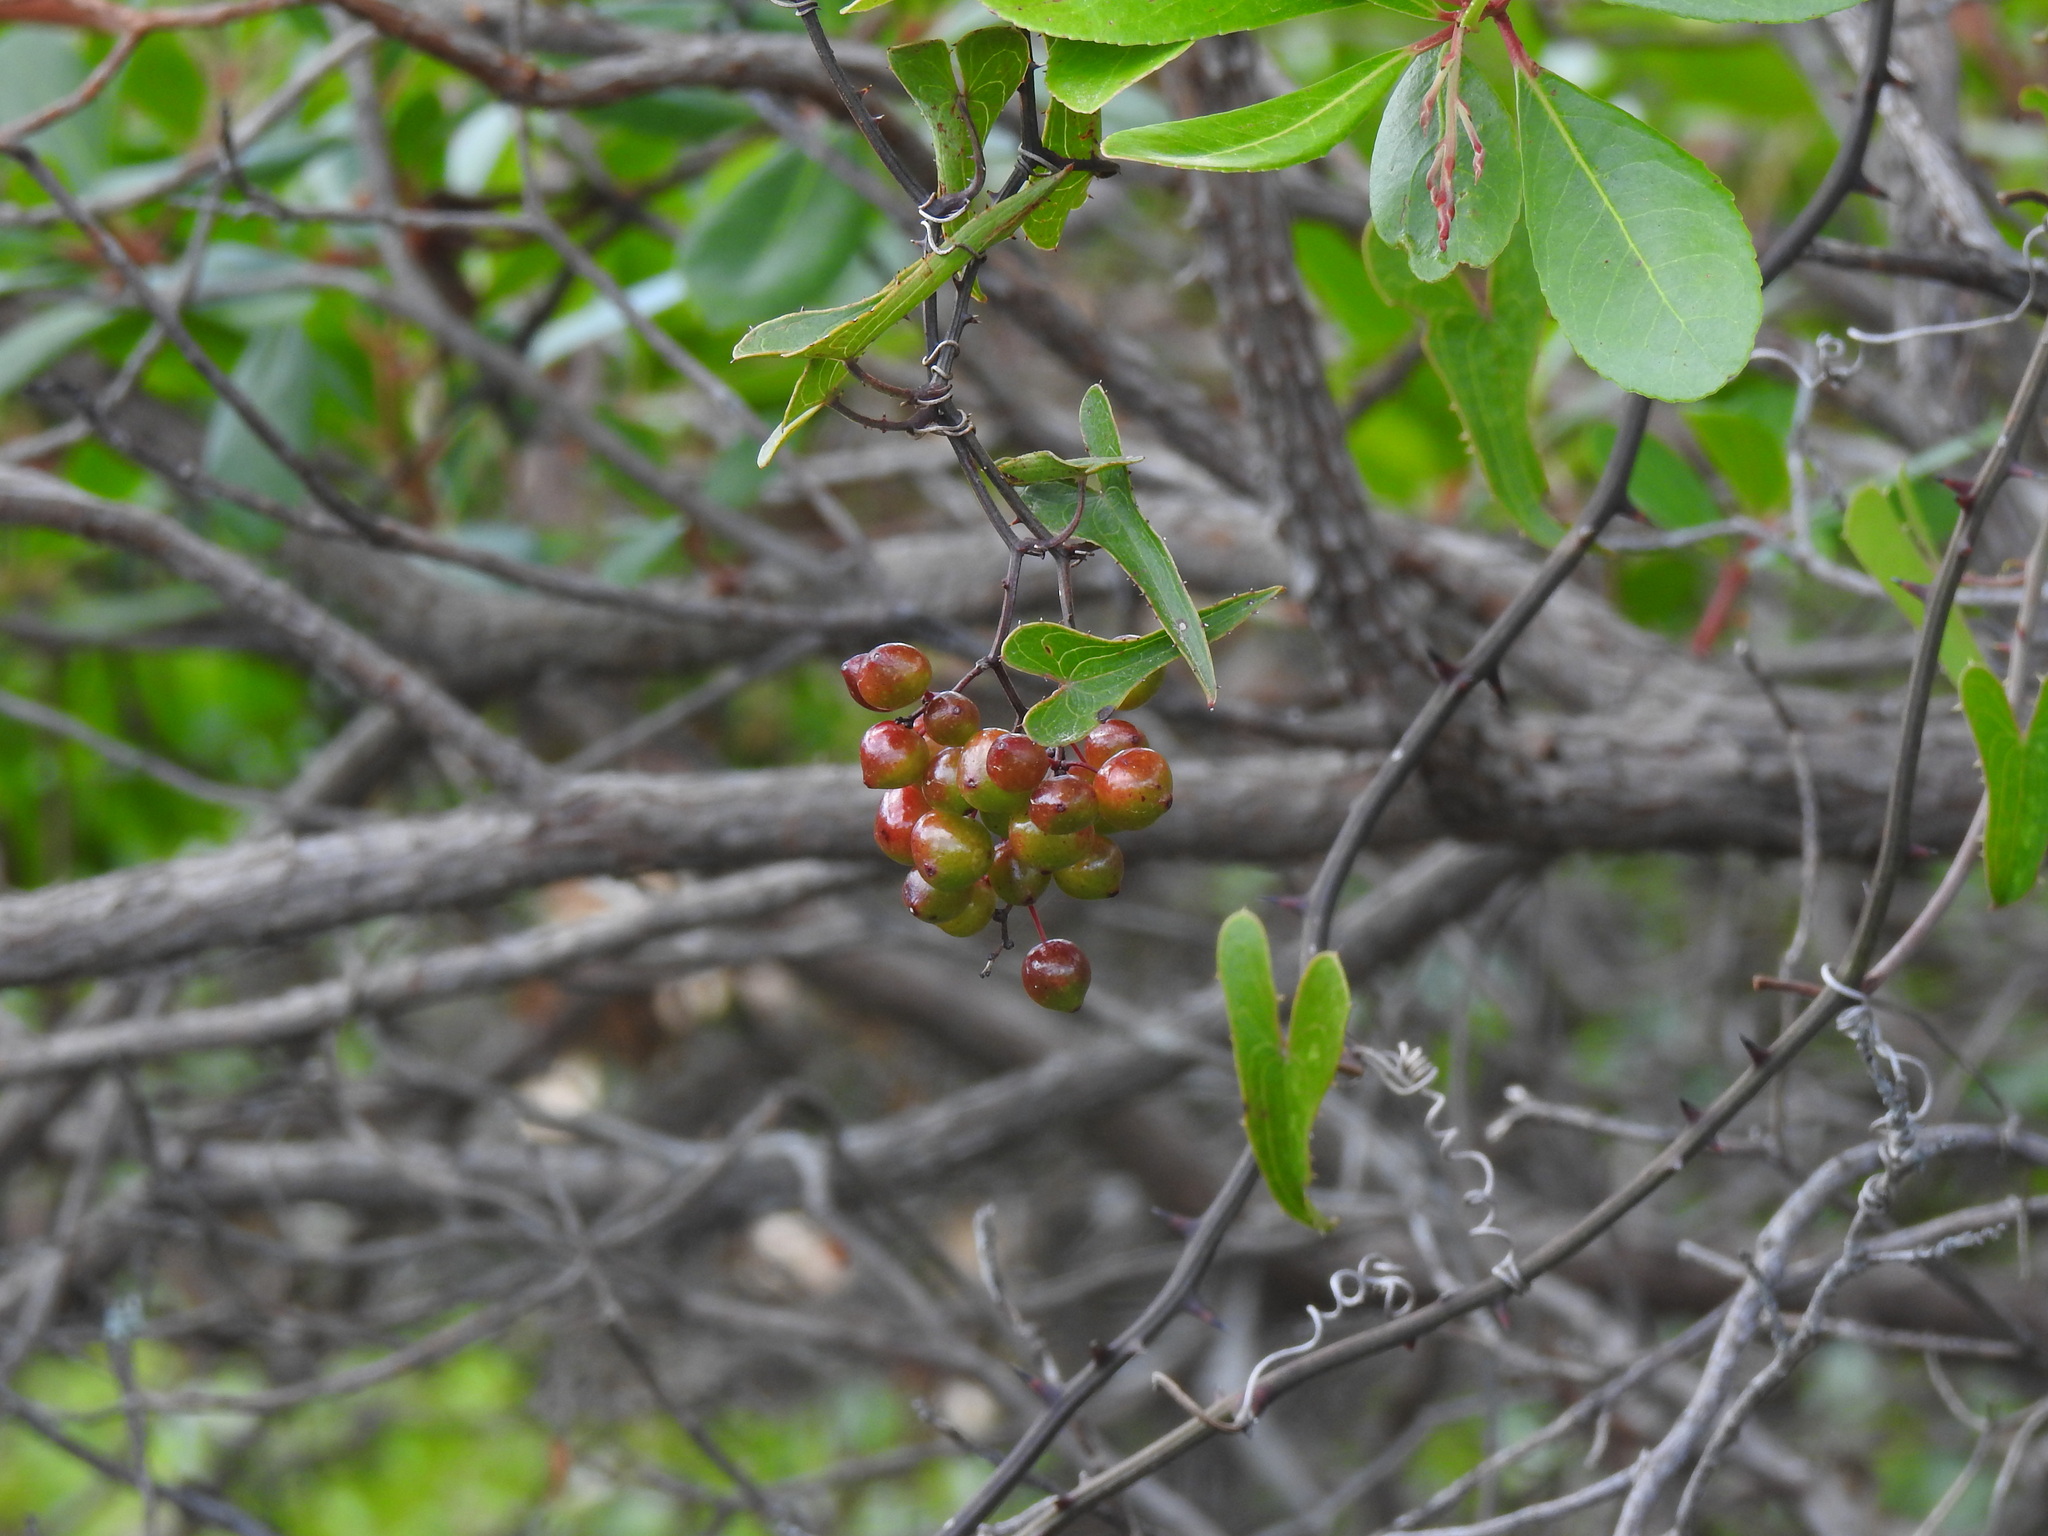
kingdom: Plantae
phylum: Tracheophyta
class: Liliopsida
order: Liliales
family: Smilacaceae
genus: Smilax
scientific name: Smilax aspera
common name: Common smilax
